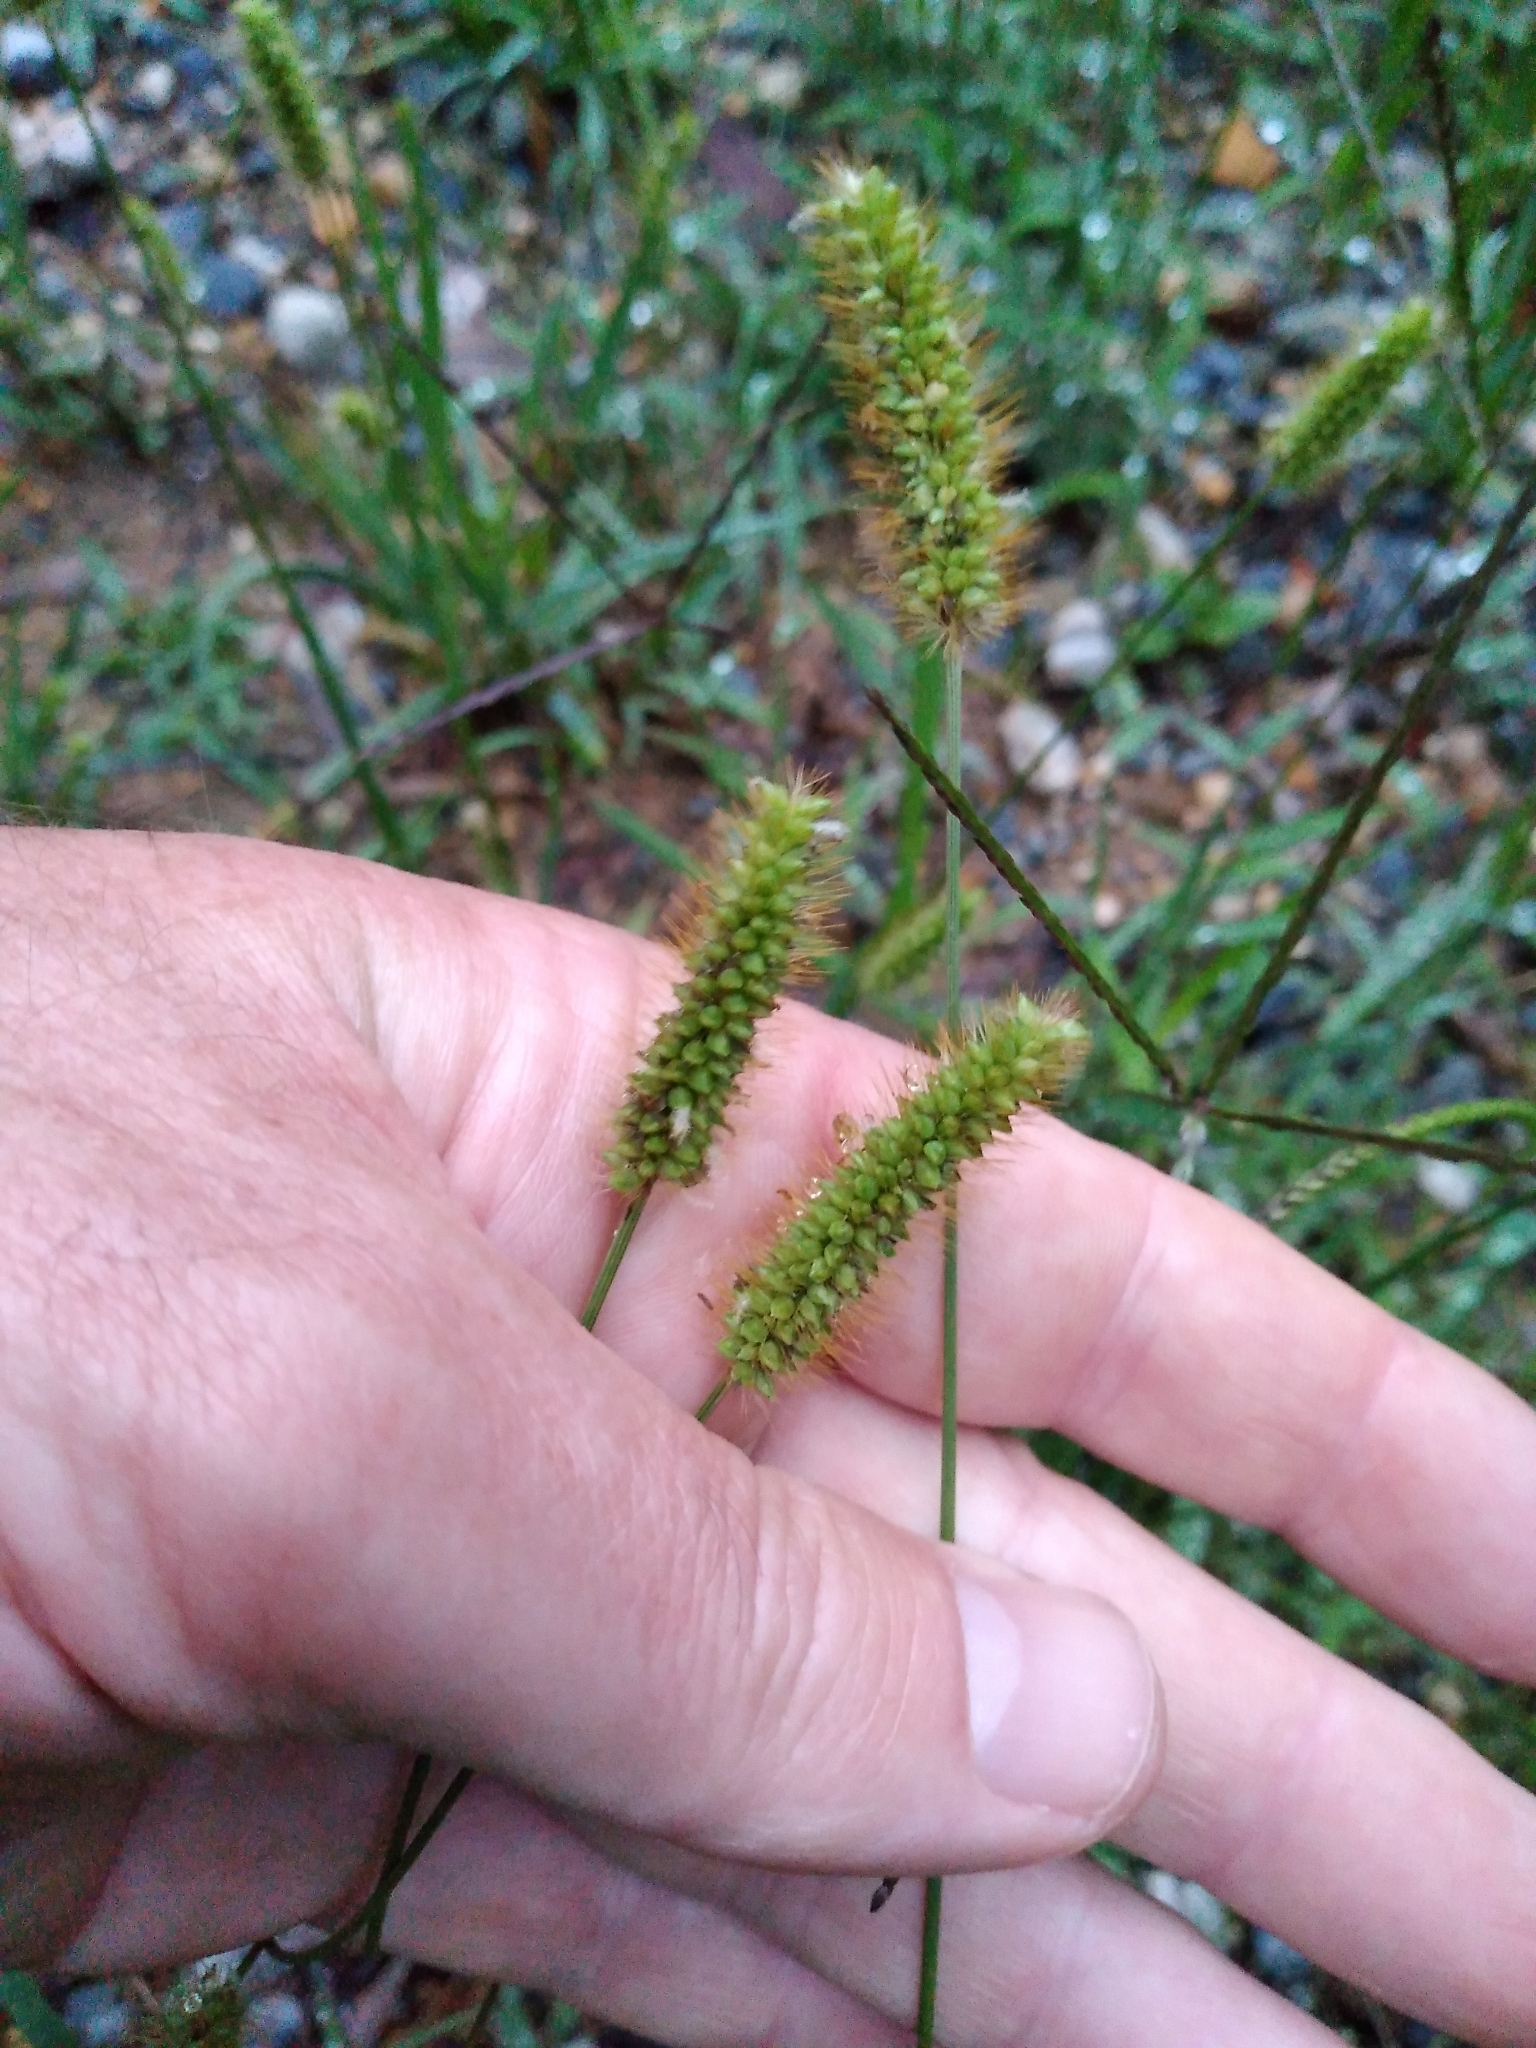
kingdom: Plantae
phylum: Tracheophyta
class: Liliopsida
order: Poales
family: Poaceae
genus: Setaria
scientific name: Setaria pumila
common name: Yellow bristle-grass
